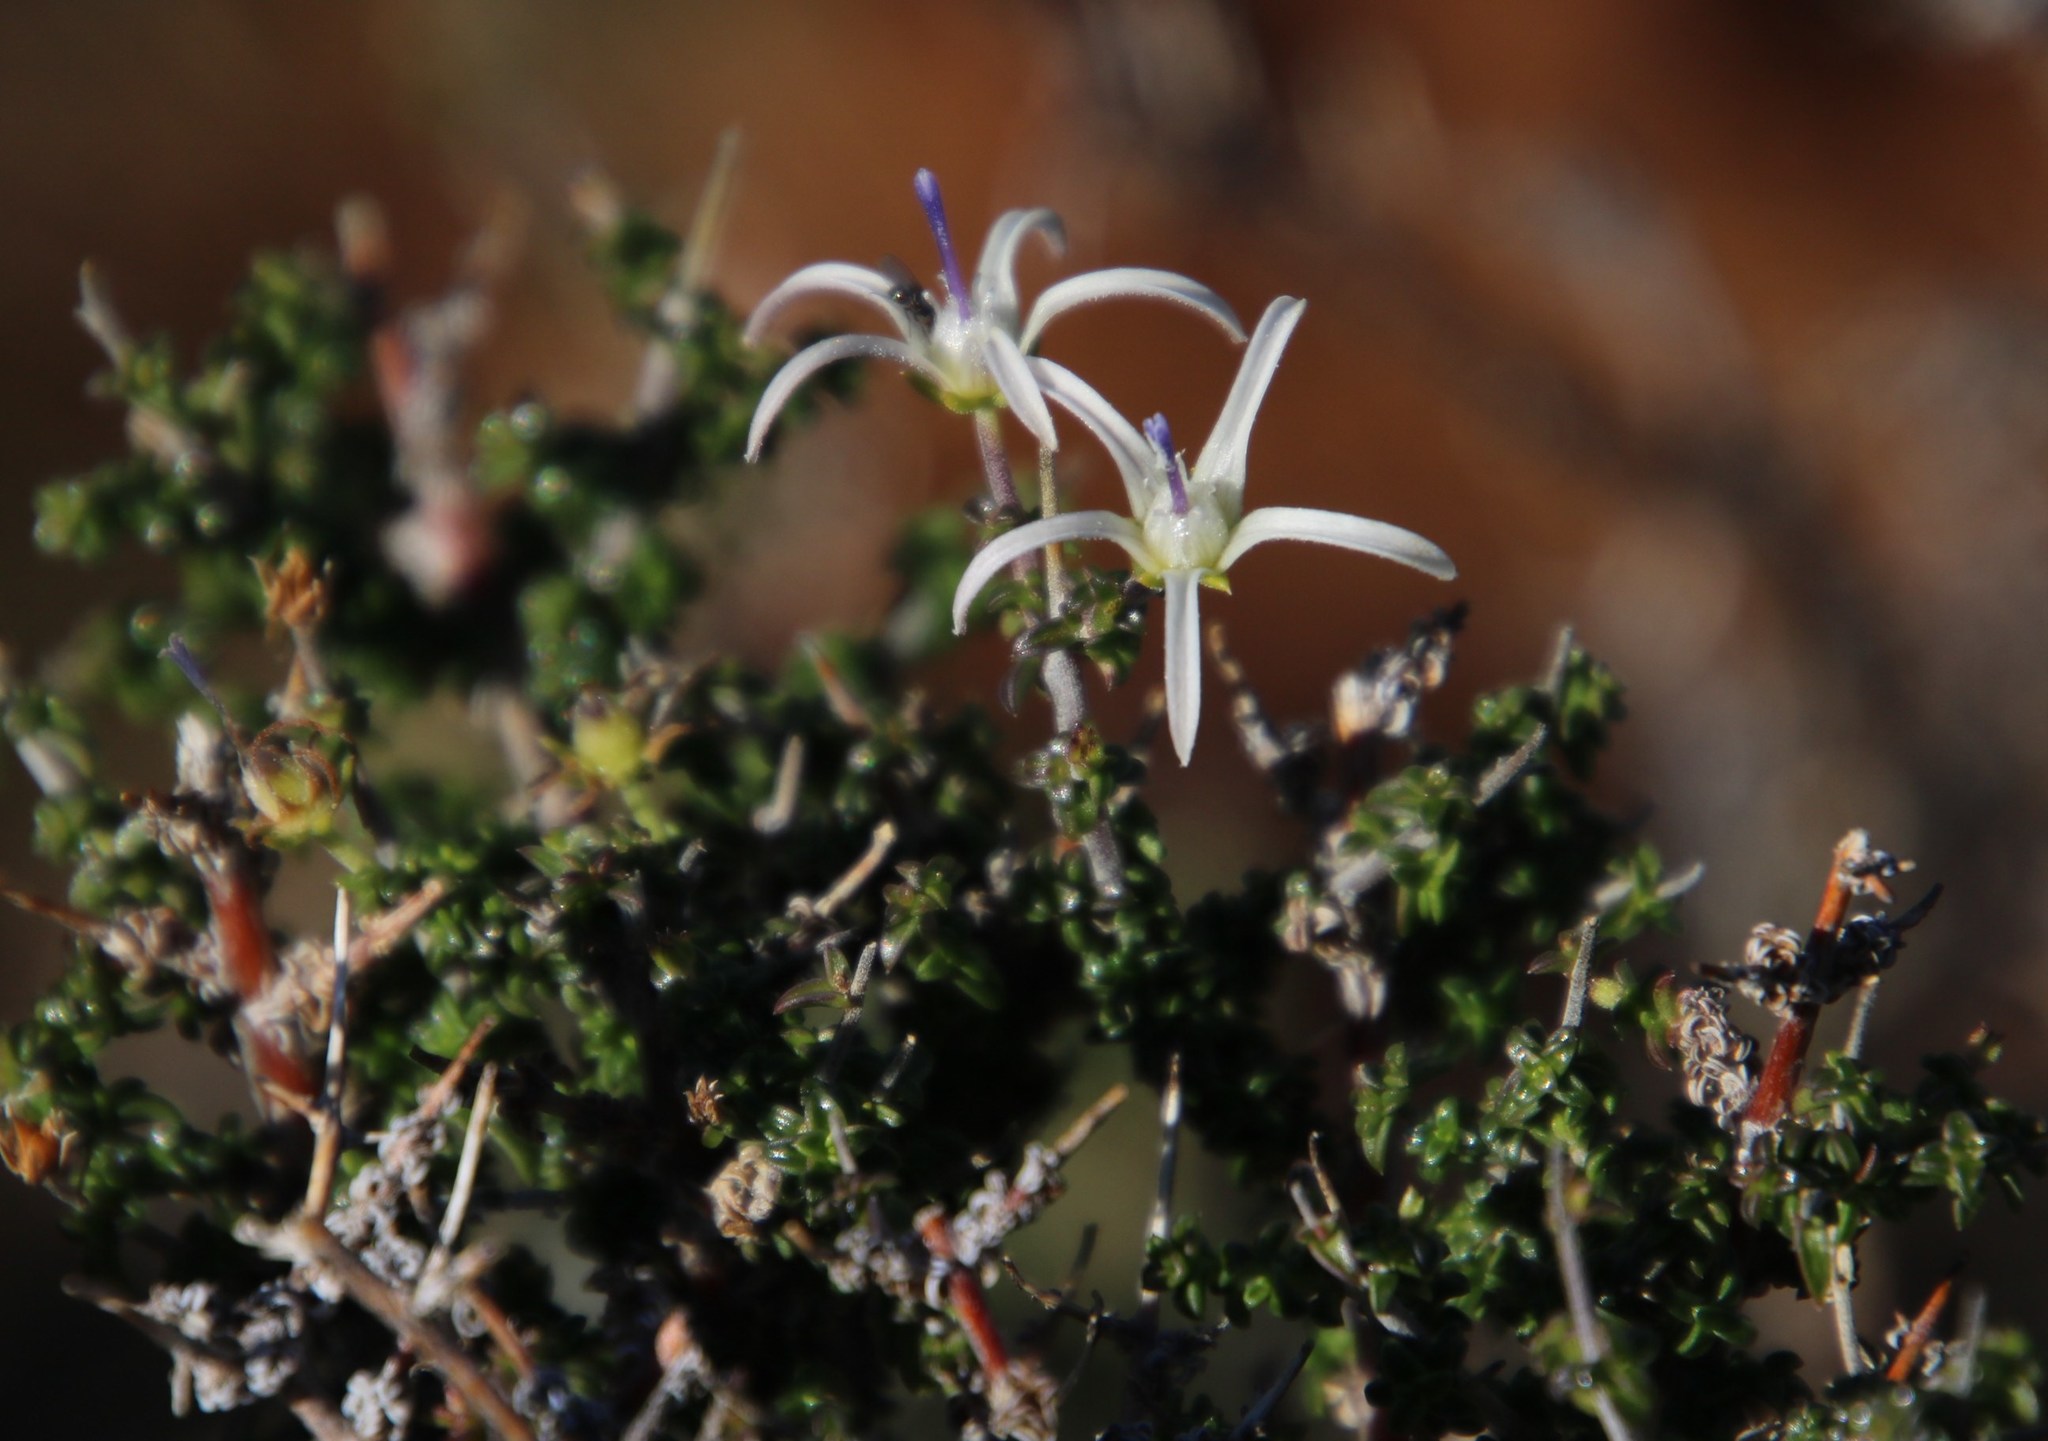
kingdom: Plantae
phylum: Tracheophyta
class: Magnoliopsida
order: Asterales
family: Campanulaceae
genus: Wahlenbergia
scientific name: Wahlenbergia nodosa
